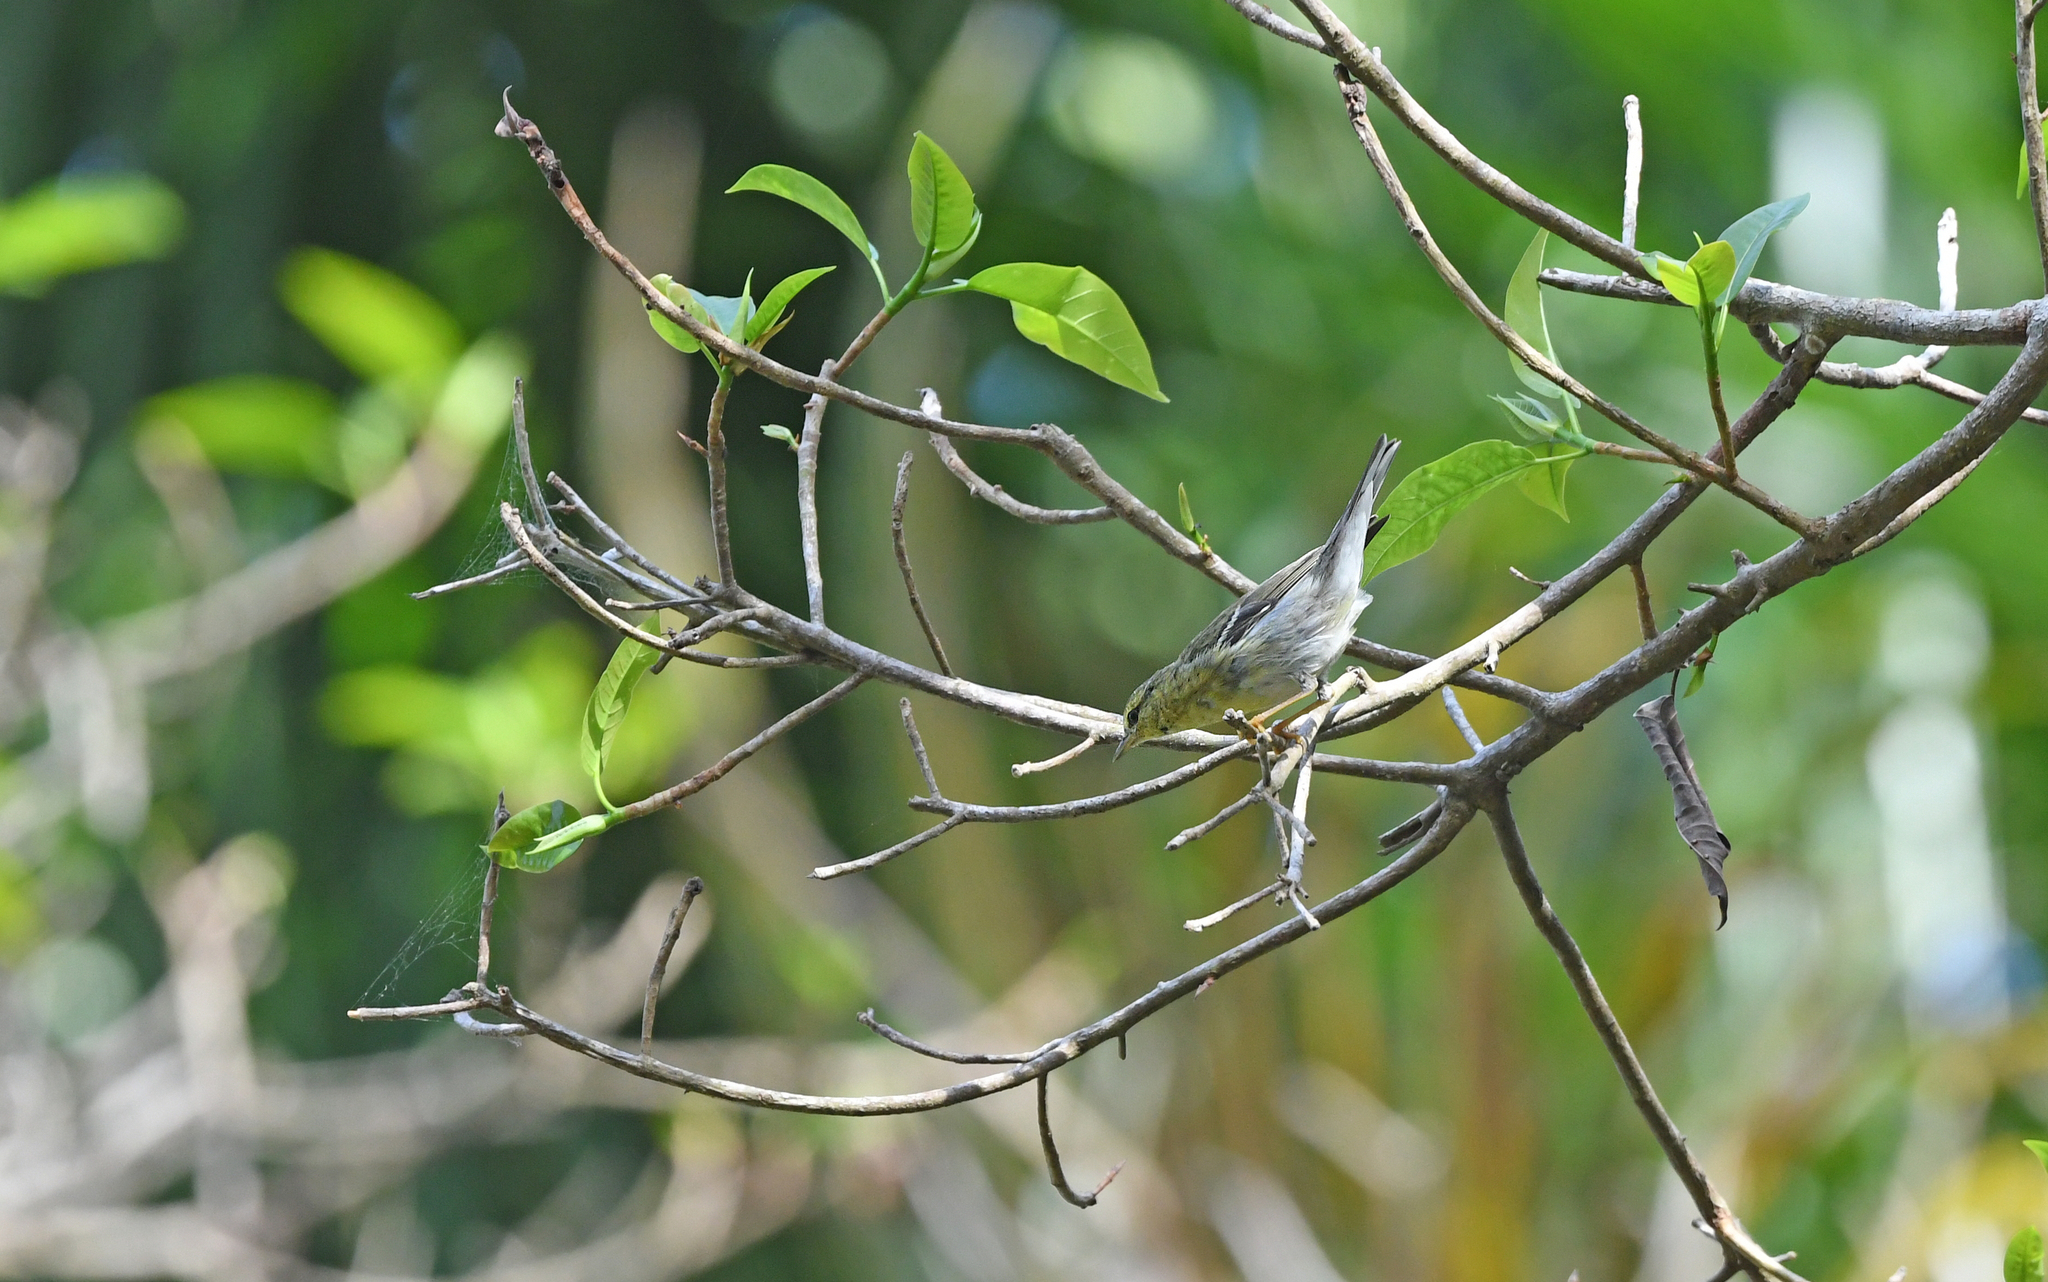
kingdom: Animalia
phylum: Chordata
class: Aves
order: Passeriformes
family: Parulidae
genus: Setophaga
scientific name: Setophaga striata
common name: Blackpoll warbler
